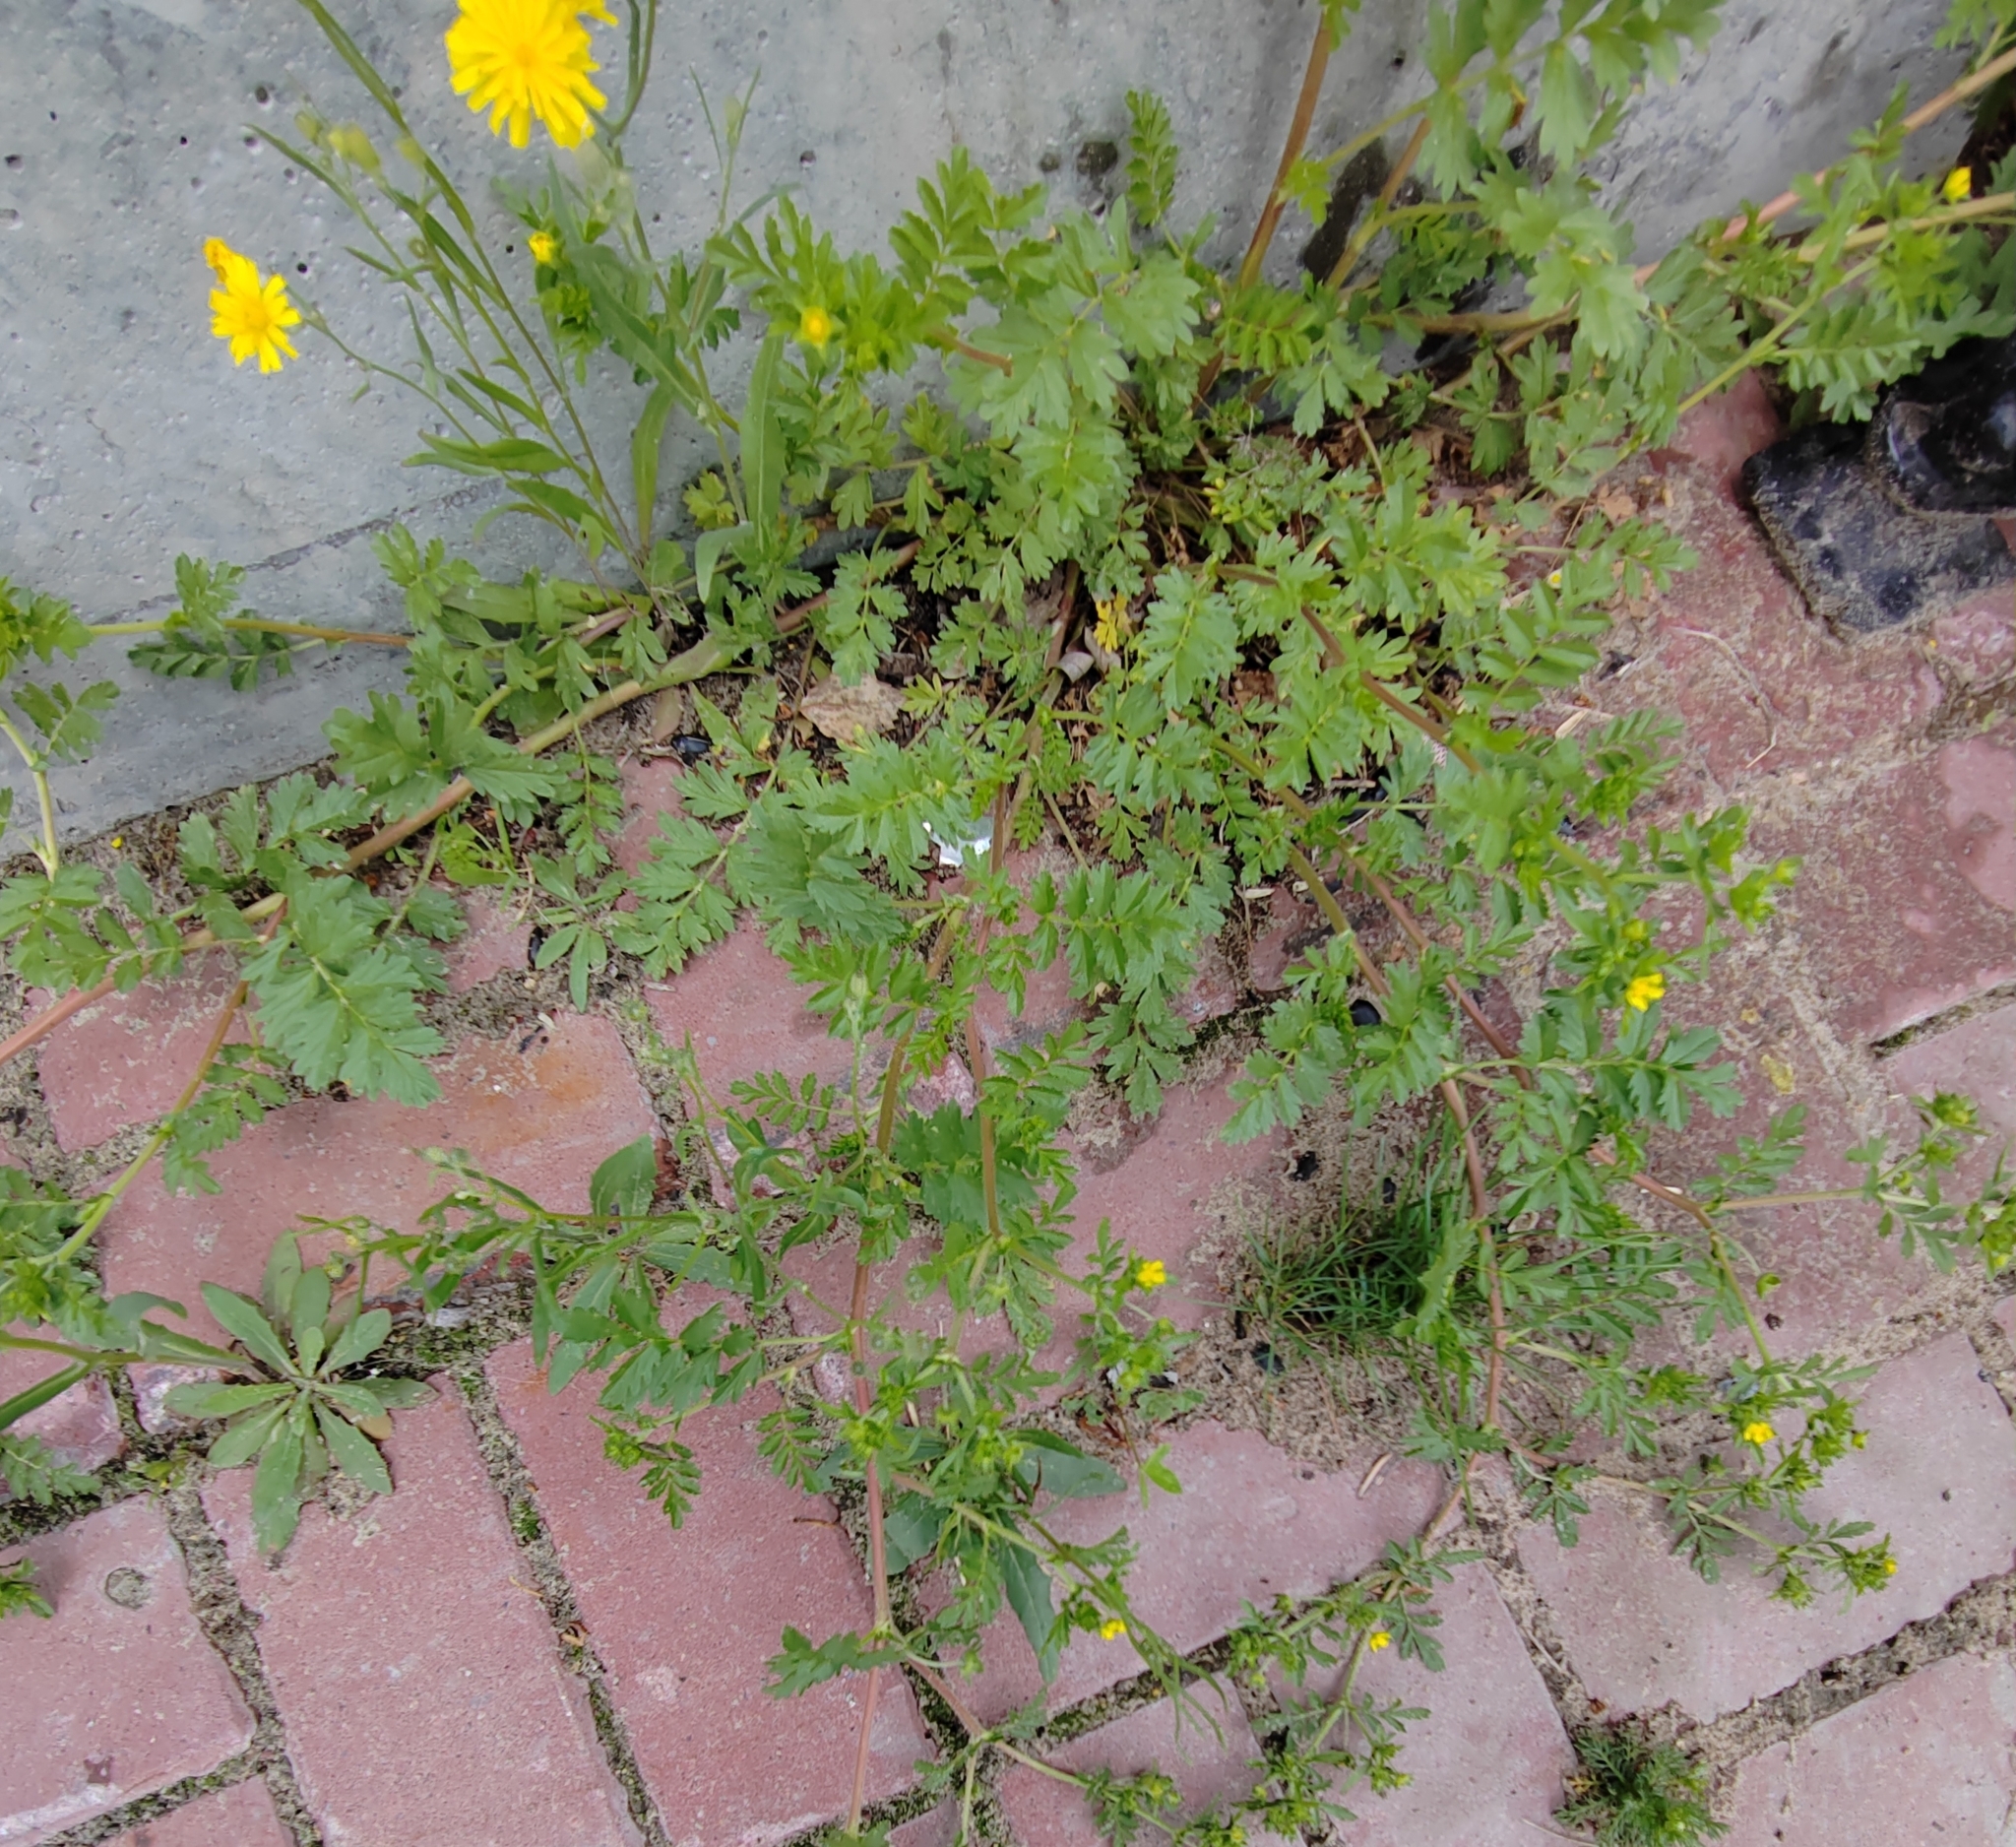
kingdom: Plantae
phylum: Tracheophyta
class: Magnoliopsida
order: Rosales
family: Rosaceae
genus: Potentilla
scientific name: Potentilla supina
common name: Prostrate cinquefoil
